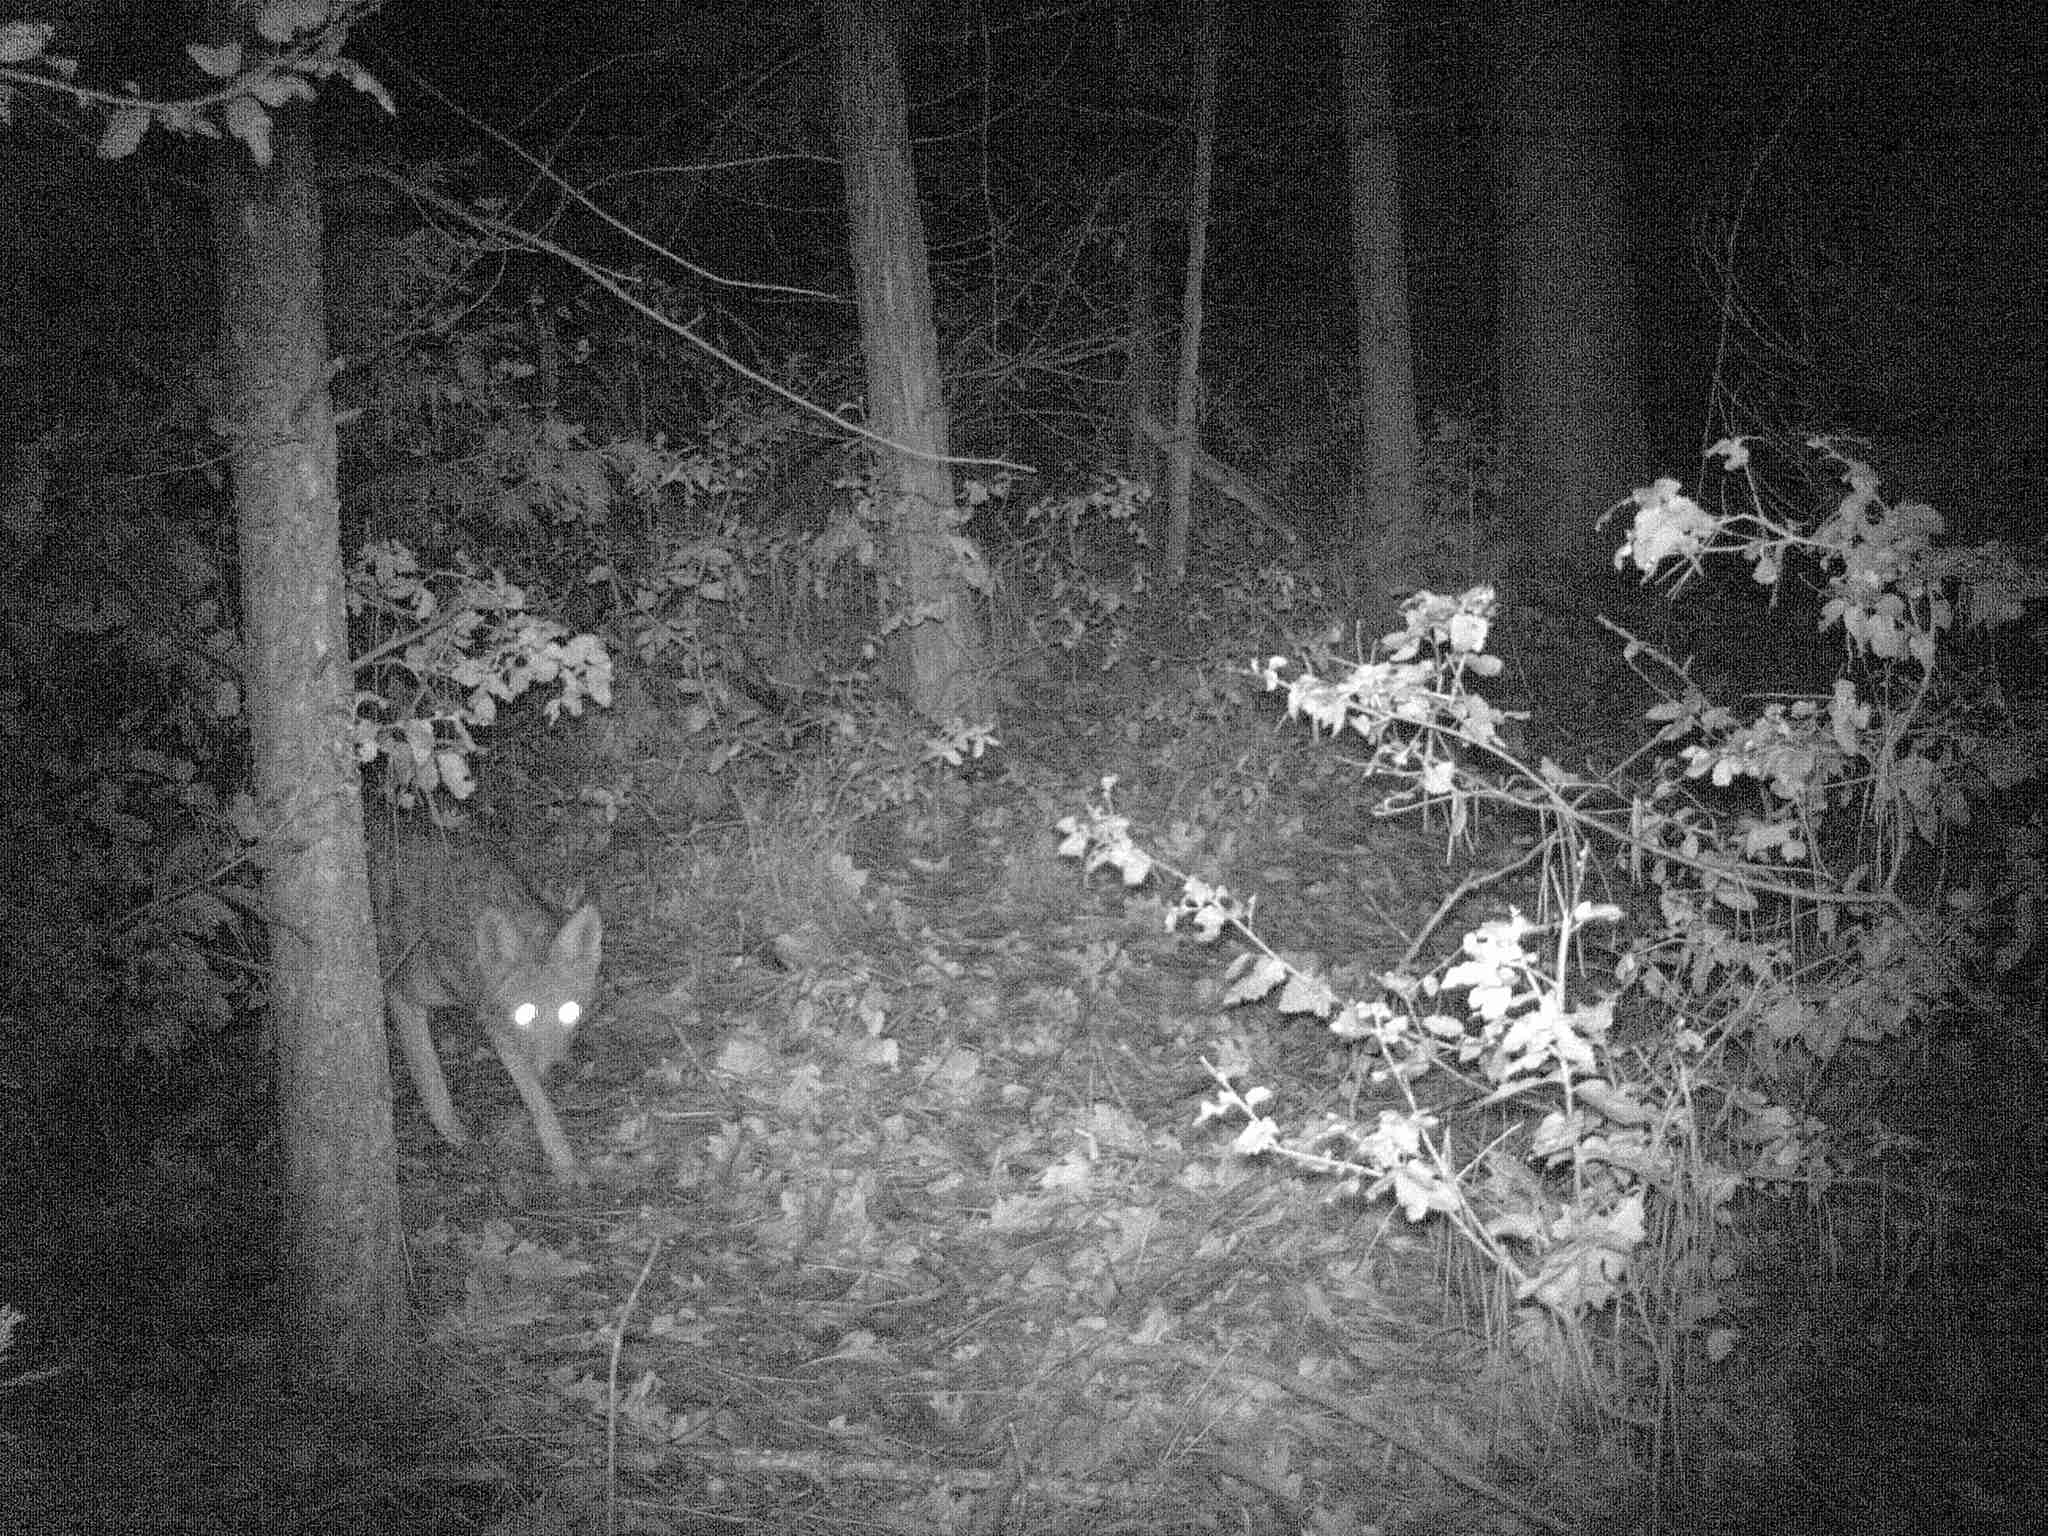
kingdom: Animalia
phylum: Chordata
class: Mammalia
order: Carnivora
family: Canidae
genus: Canis
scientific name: Canis latrans
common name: Coyote
